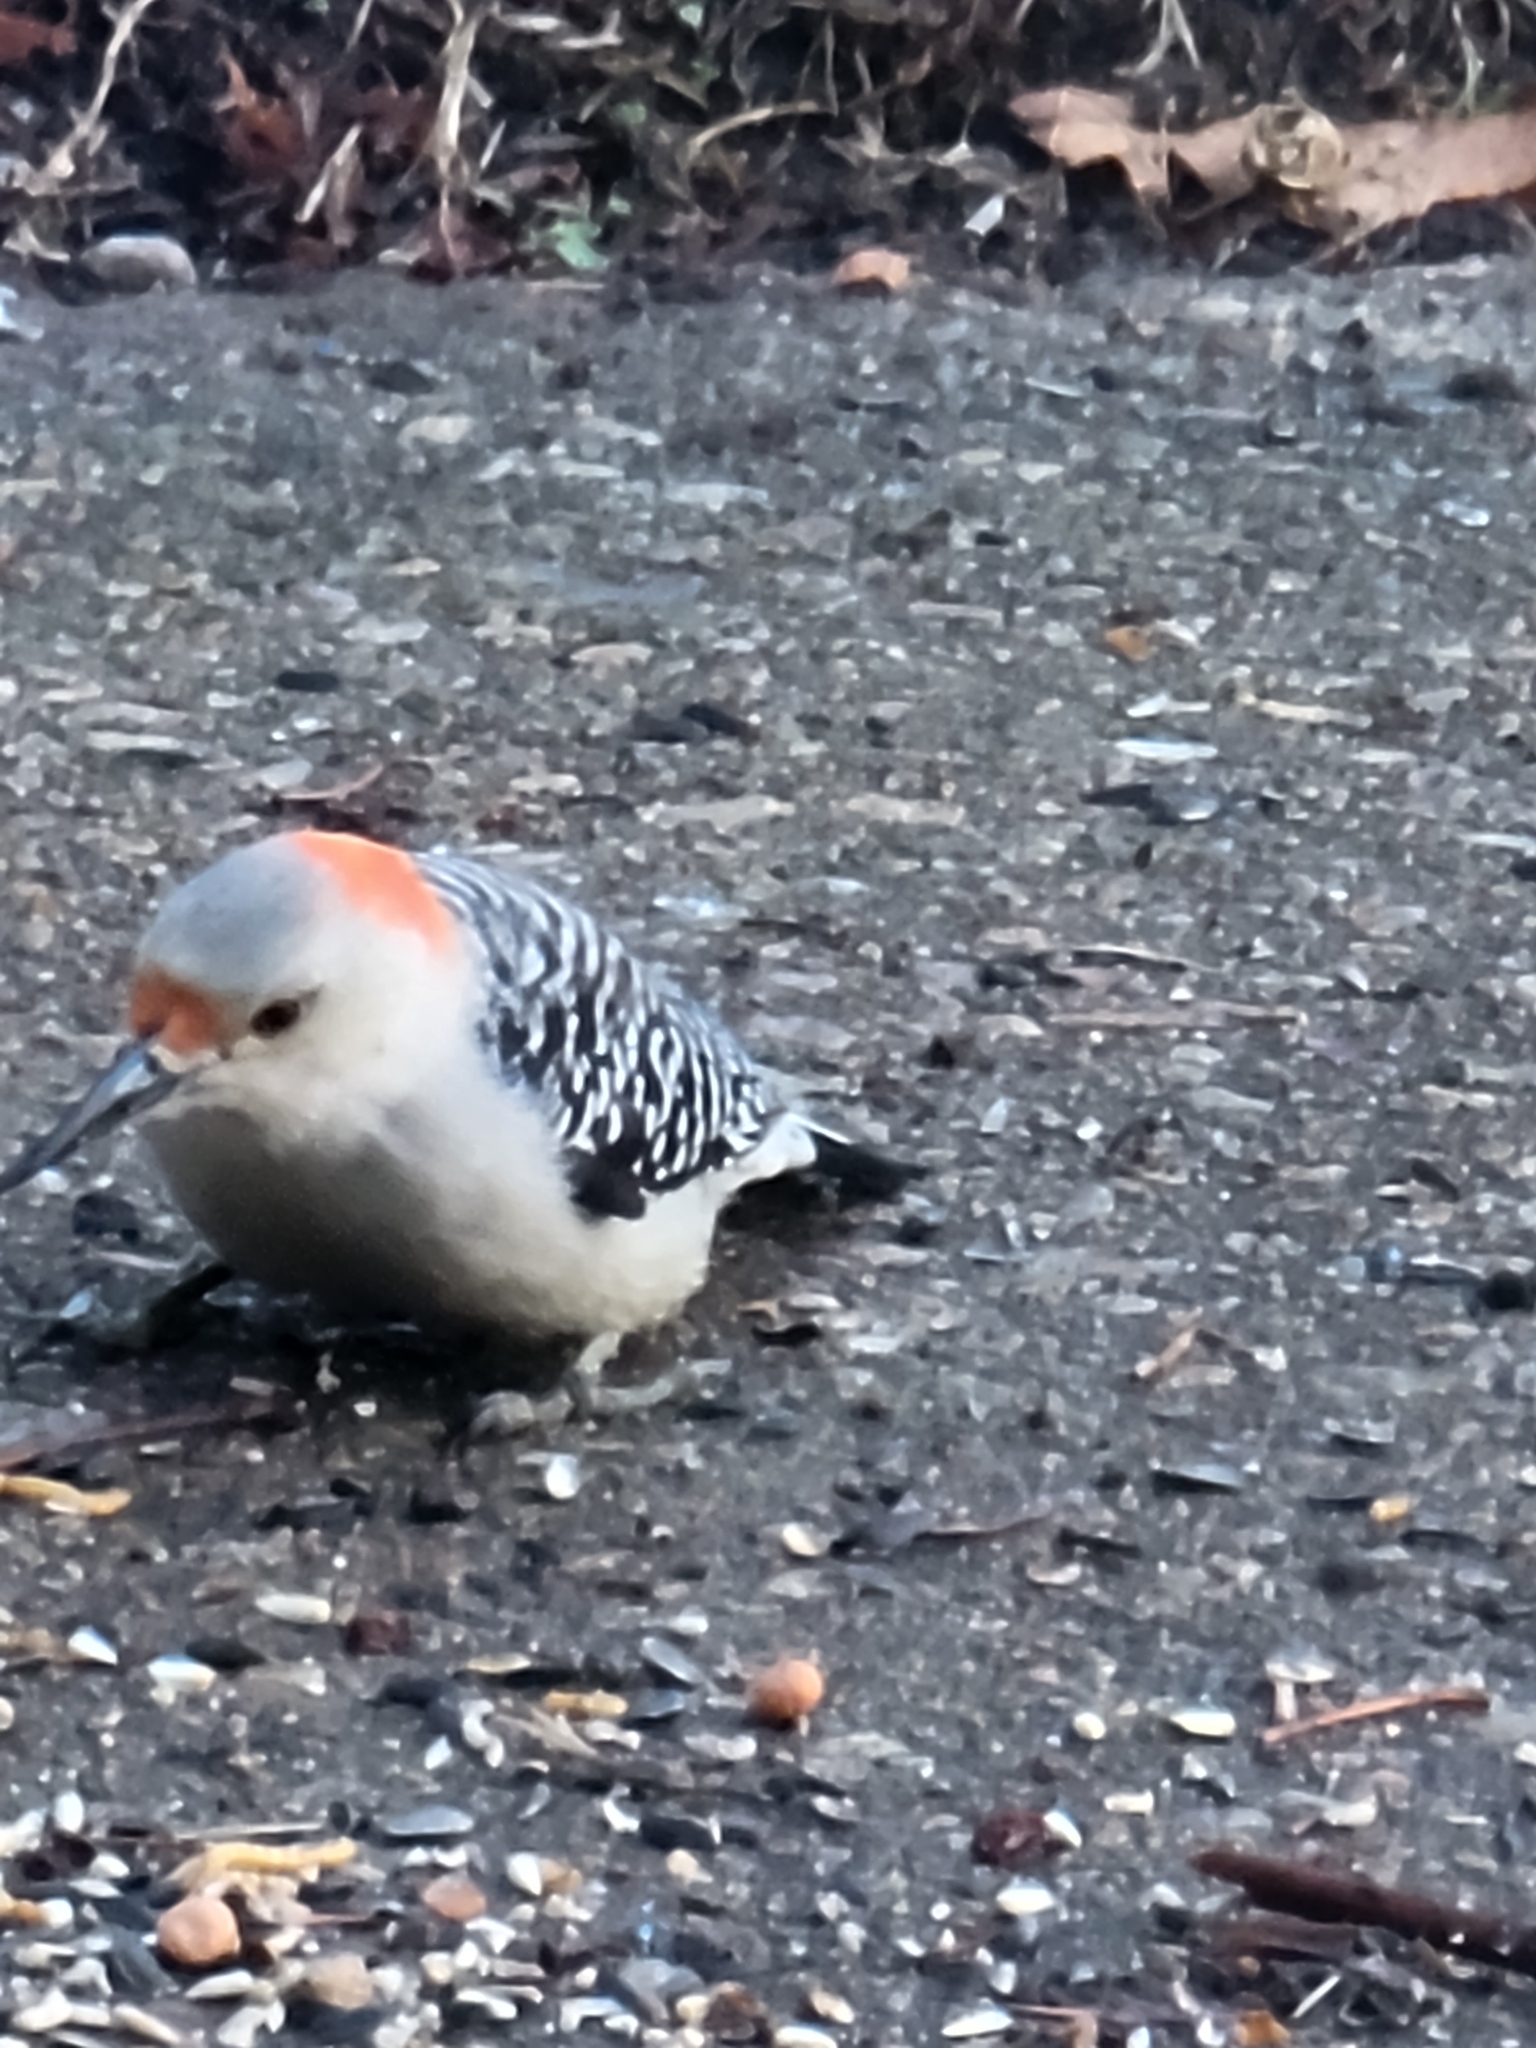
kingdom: Animalia
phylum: Chordata
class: Aves
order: Piciformes
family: Picidae
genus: Melanerpes
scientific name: Melanerpes carolinus
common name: Red-bellied woodpecker
